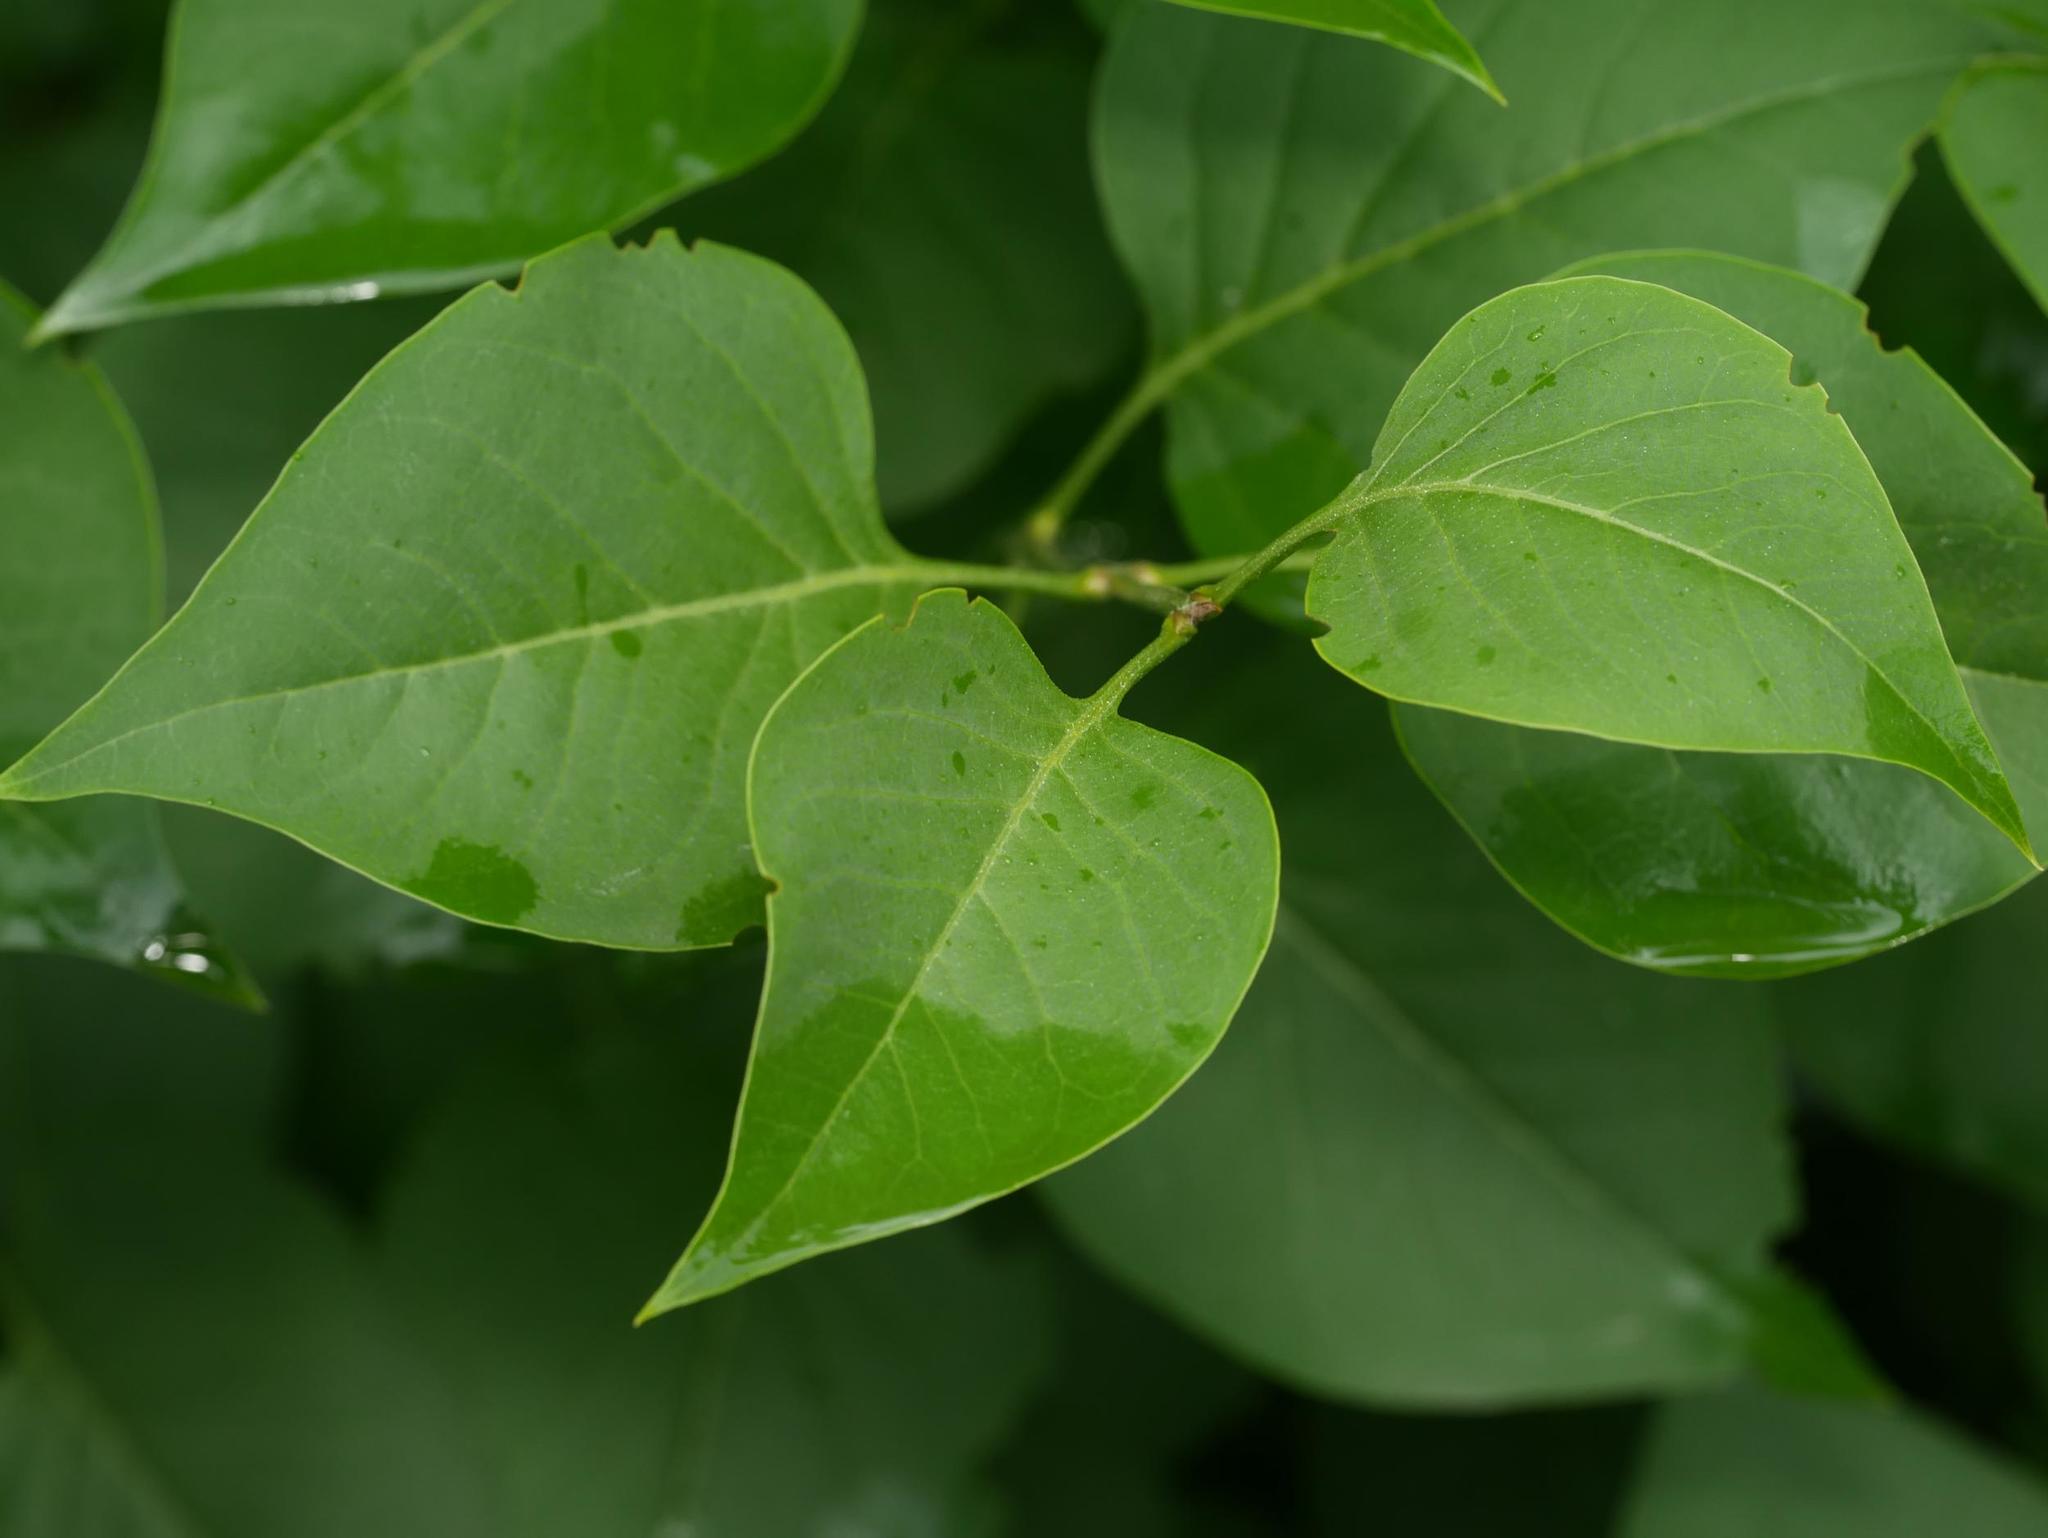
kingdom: Plantae
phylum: Tracheophyta
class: Magnoliopsida
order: Lamiales
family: Oleaceae
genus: Syringa
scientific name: Syringa vulgaris
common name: Common lilac
